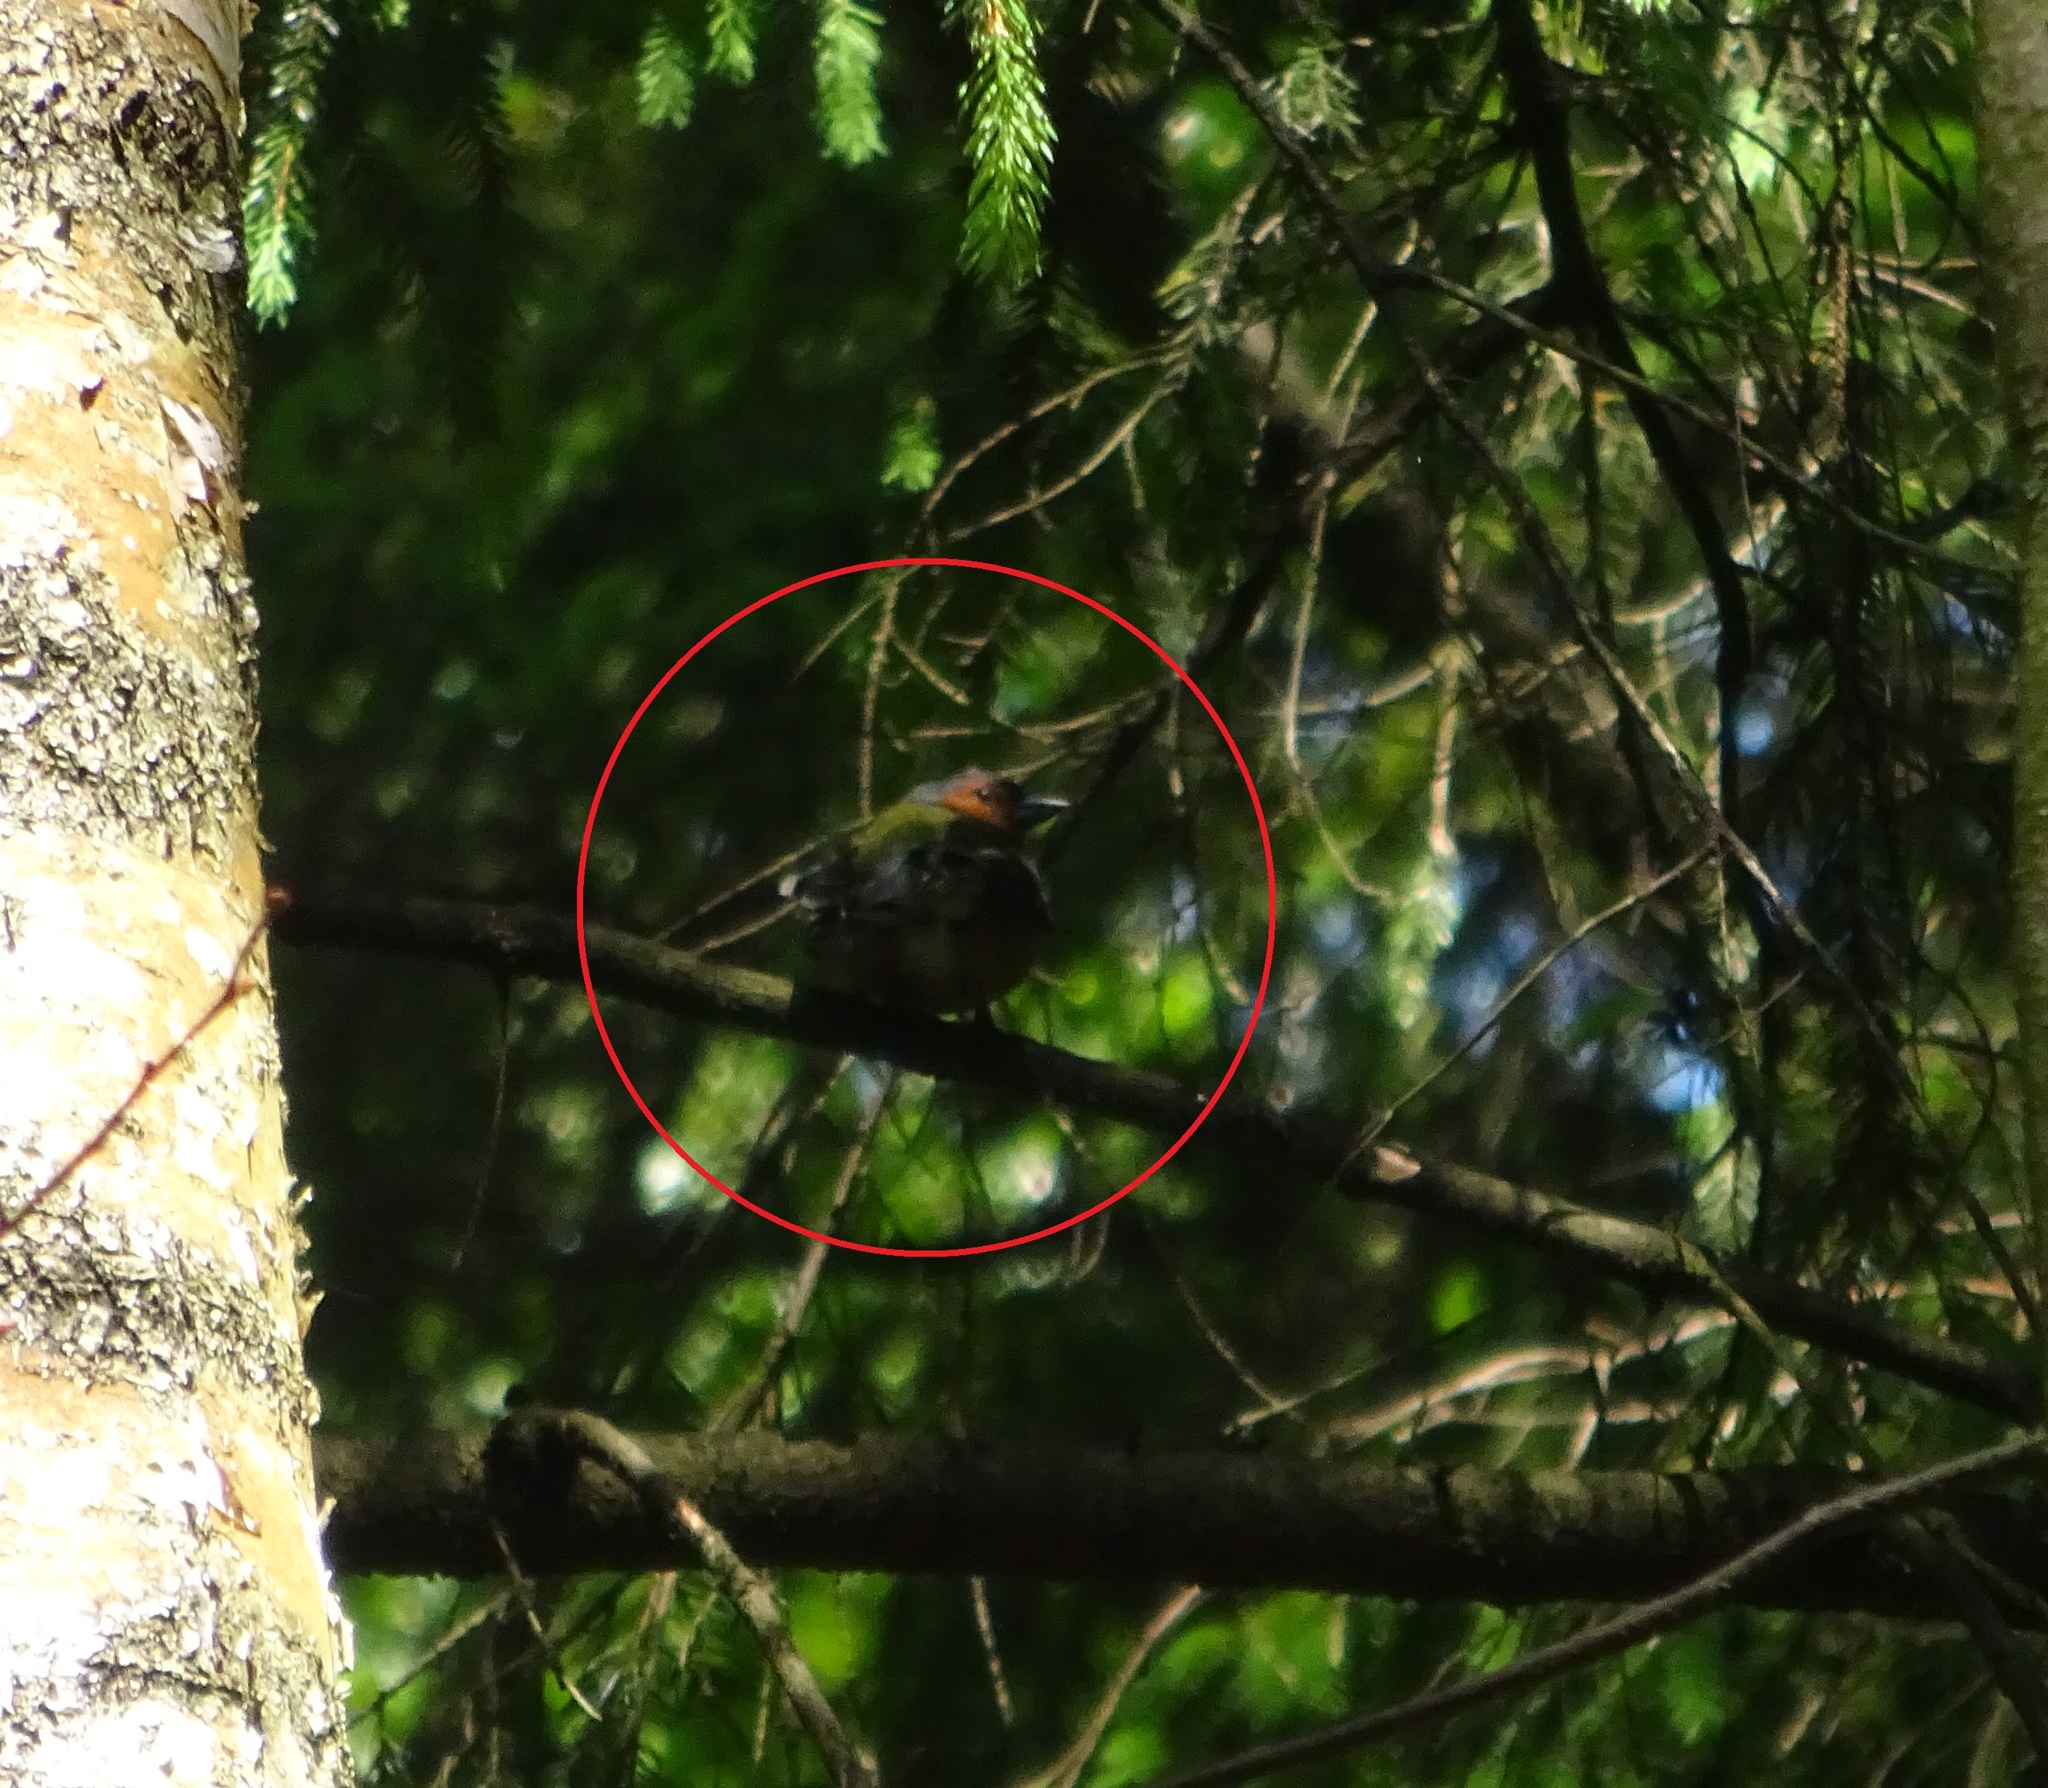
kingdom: Animalia
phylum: Chordata
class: Aves
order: Passeriformes
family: Fringillidae
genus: Fringilla
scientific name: Fringilla coelebs
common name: Common chaffinch
